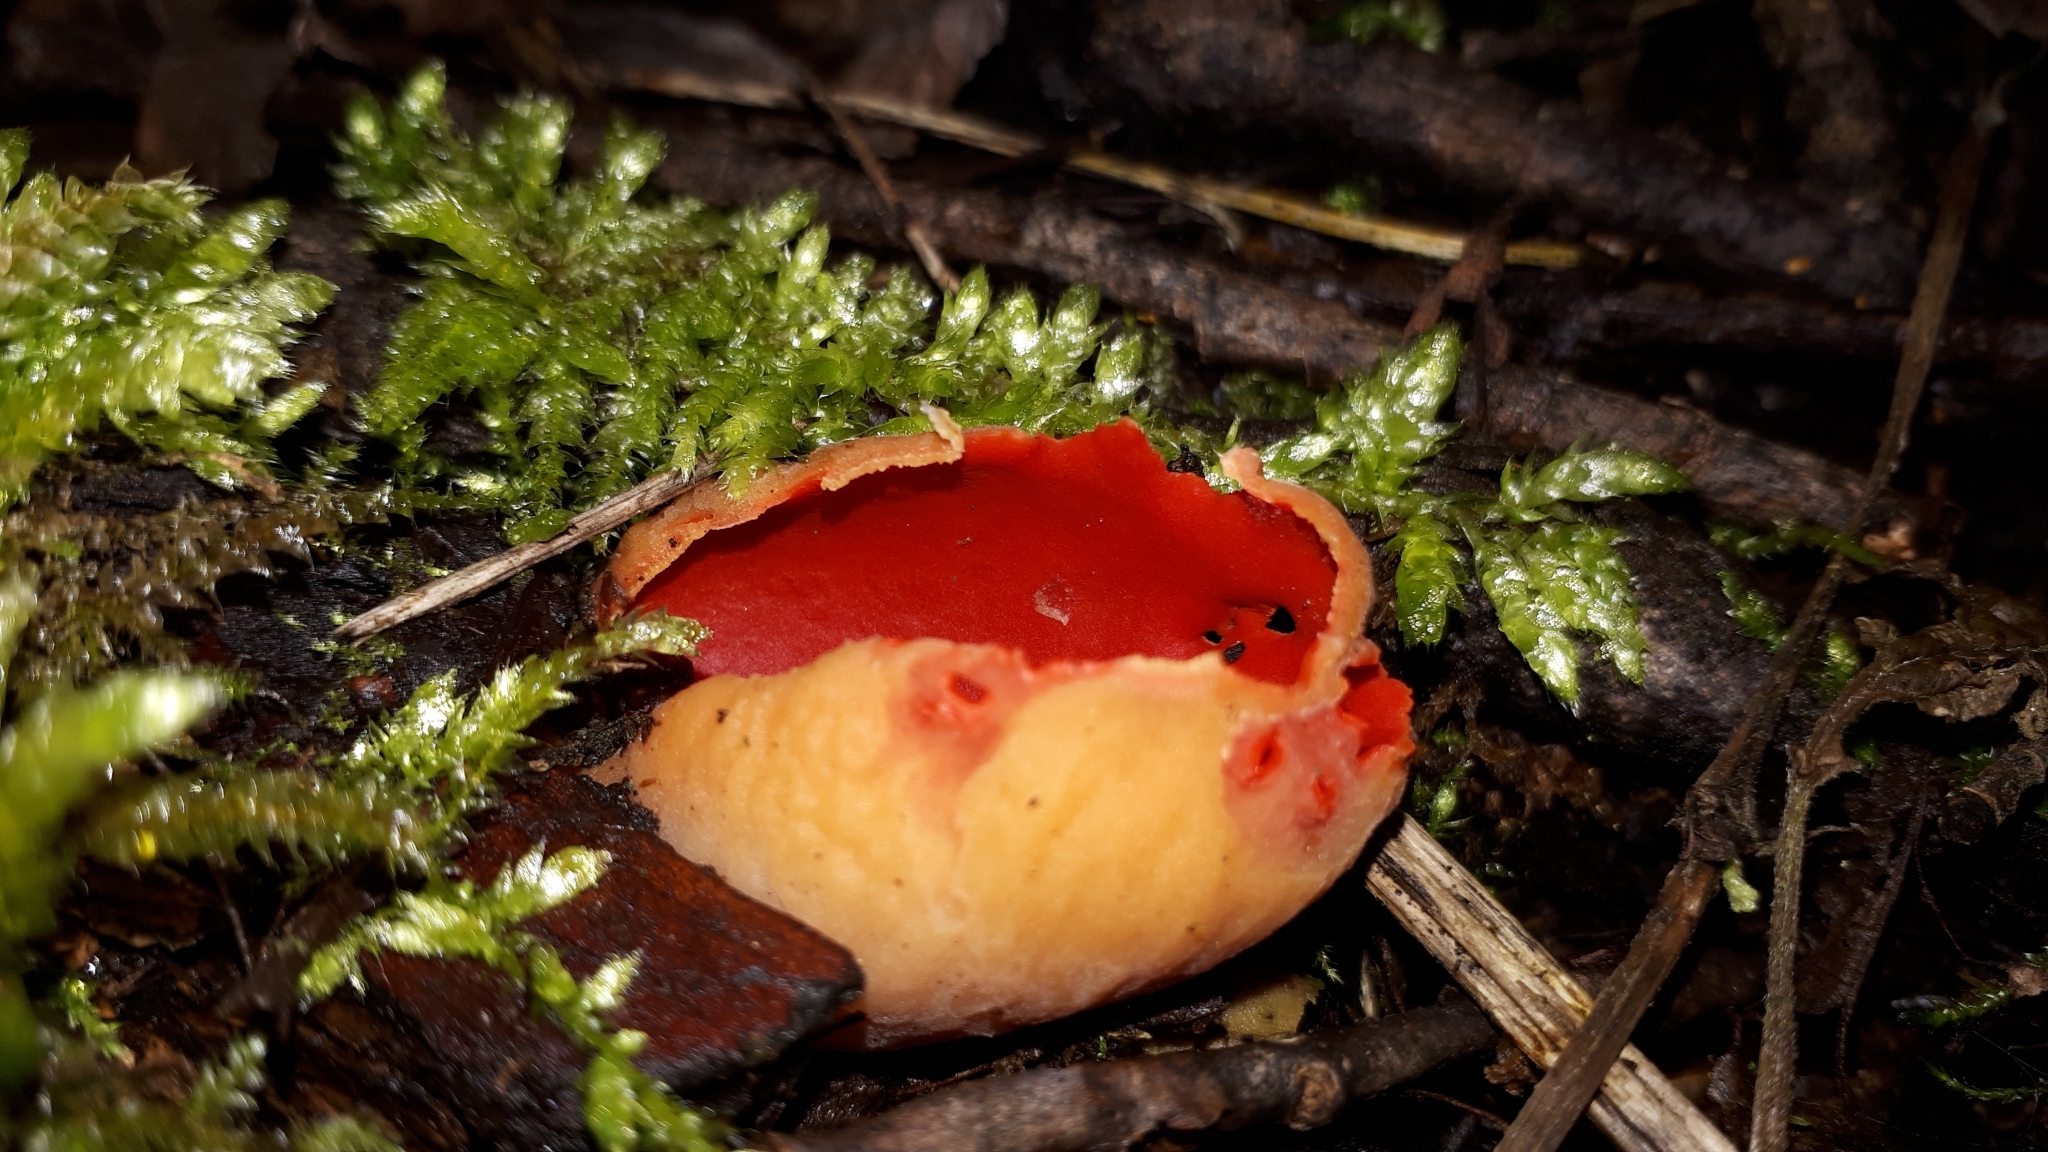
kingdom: Fungi
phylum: Ascomycota
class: Pezizomycetes
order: Pezizales
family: Sarcoscyphaceae
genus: Sarcoscypha
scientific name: Sarcoscypha
